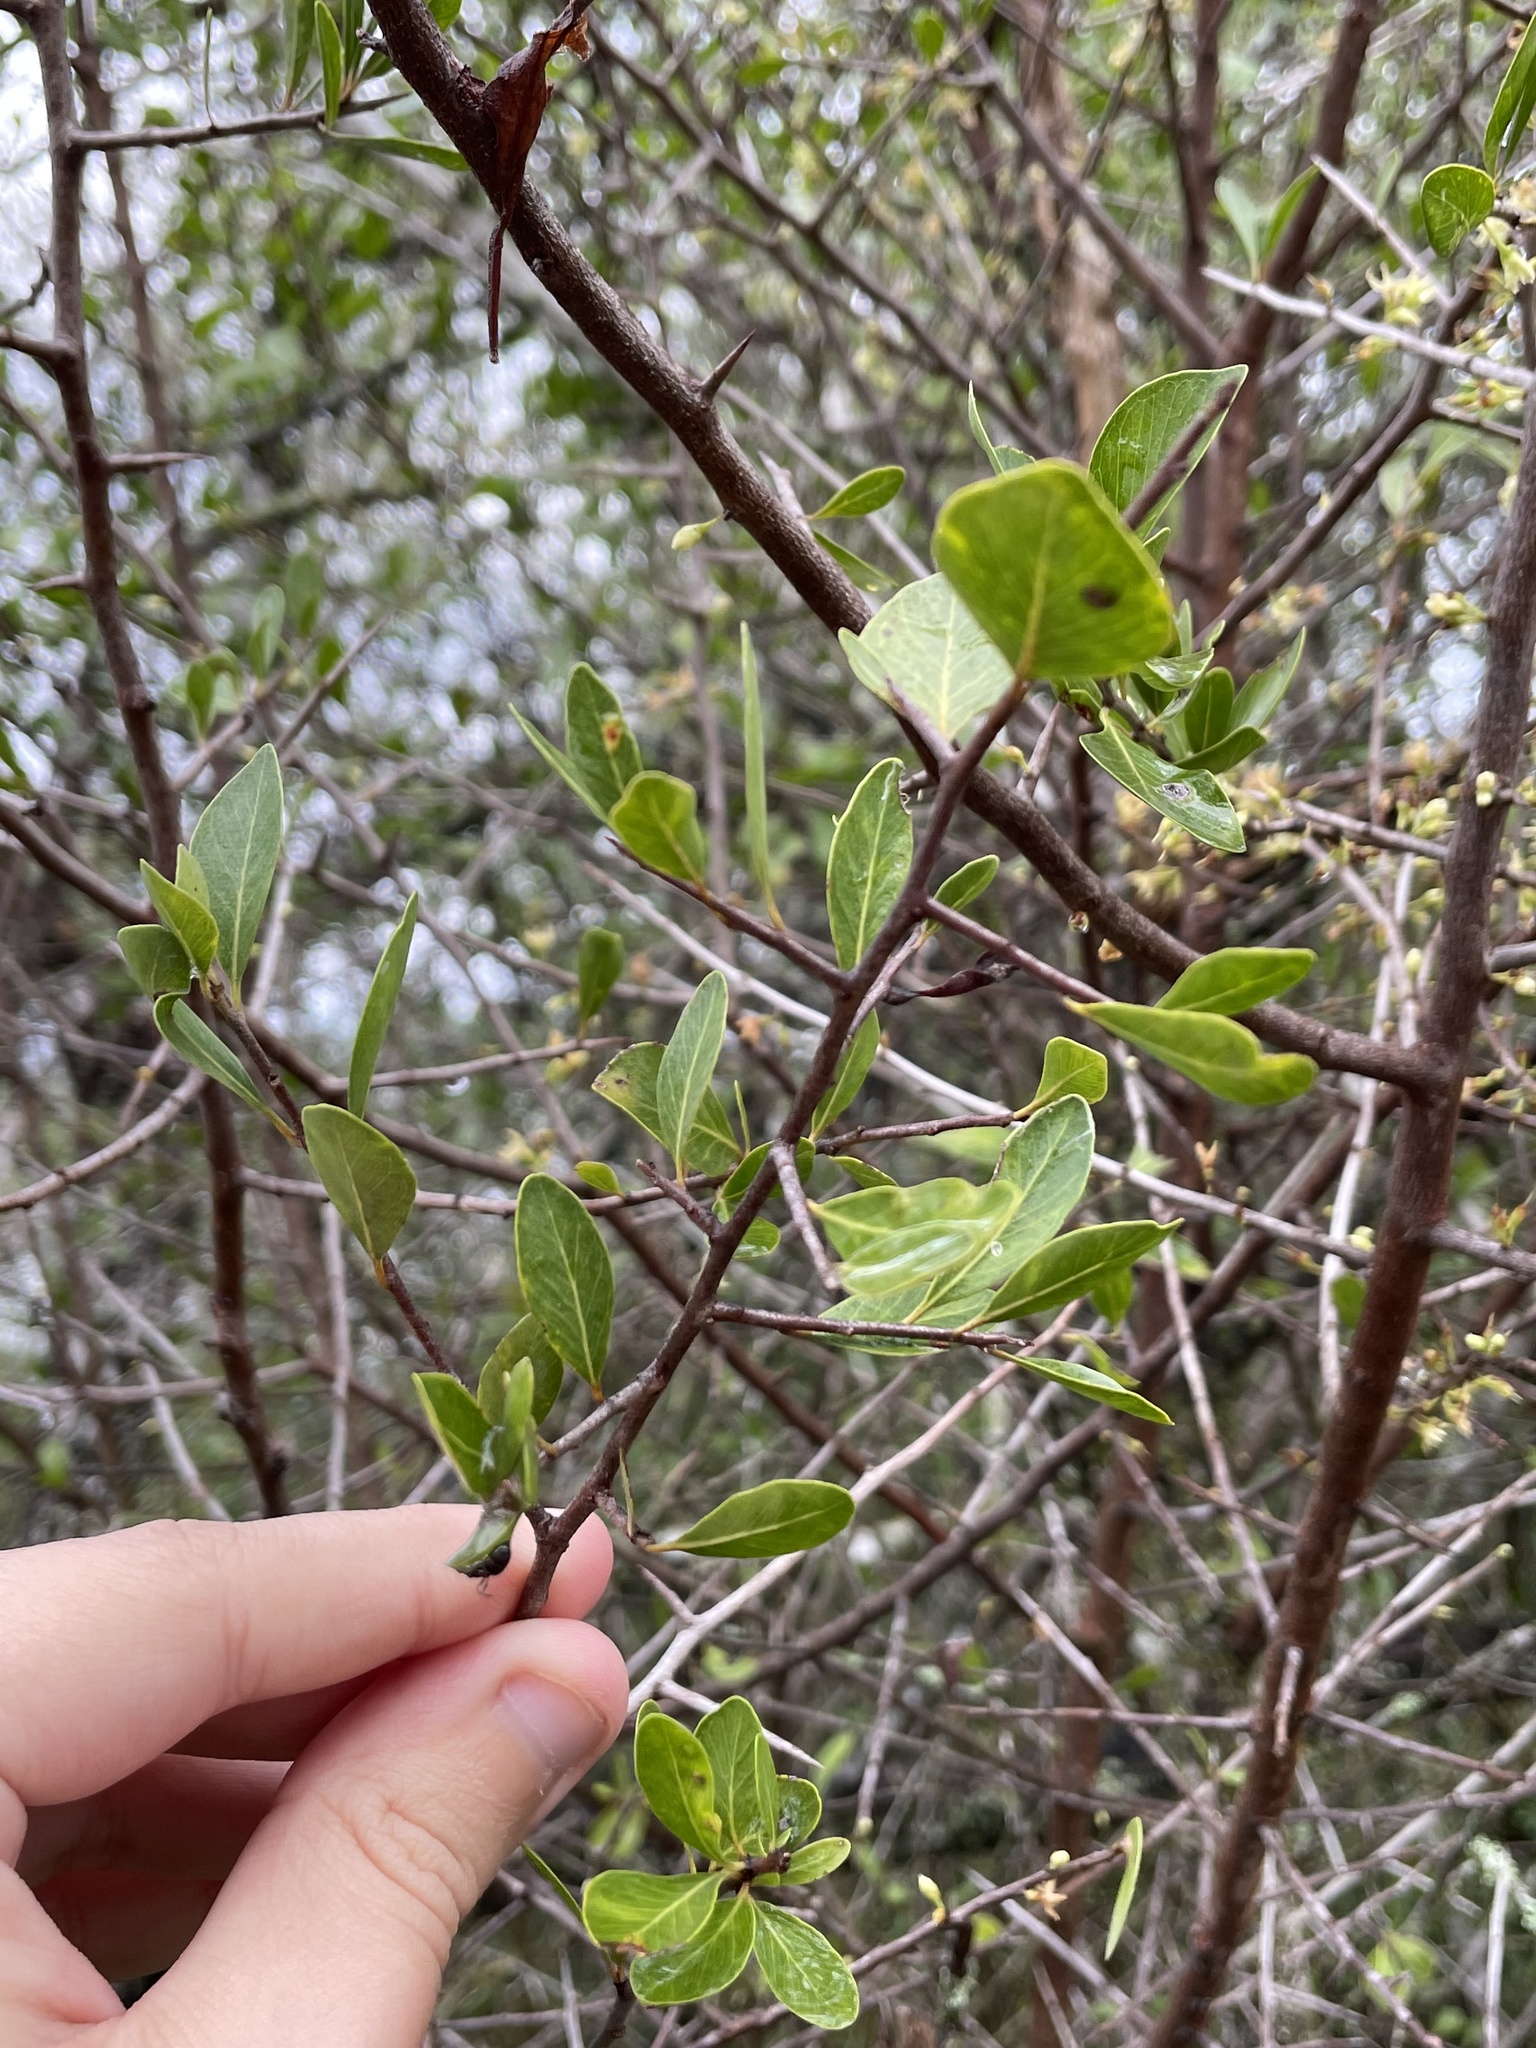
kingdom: Plantae
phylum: Tracheophyta
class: Magnoliopsida
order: Ericales
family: Sapotaceae
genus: Sideroxylon
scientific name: Sideroxylon celastrinum
